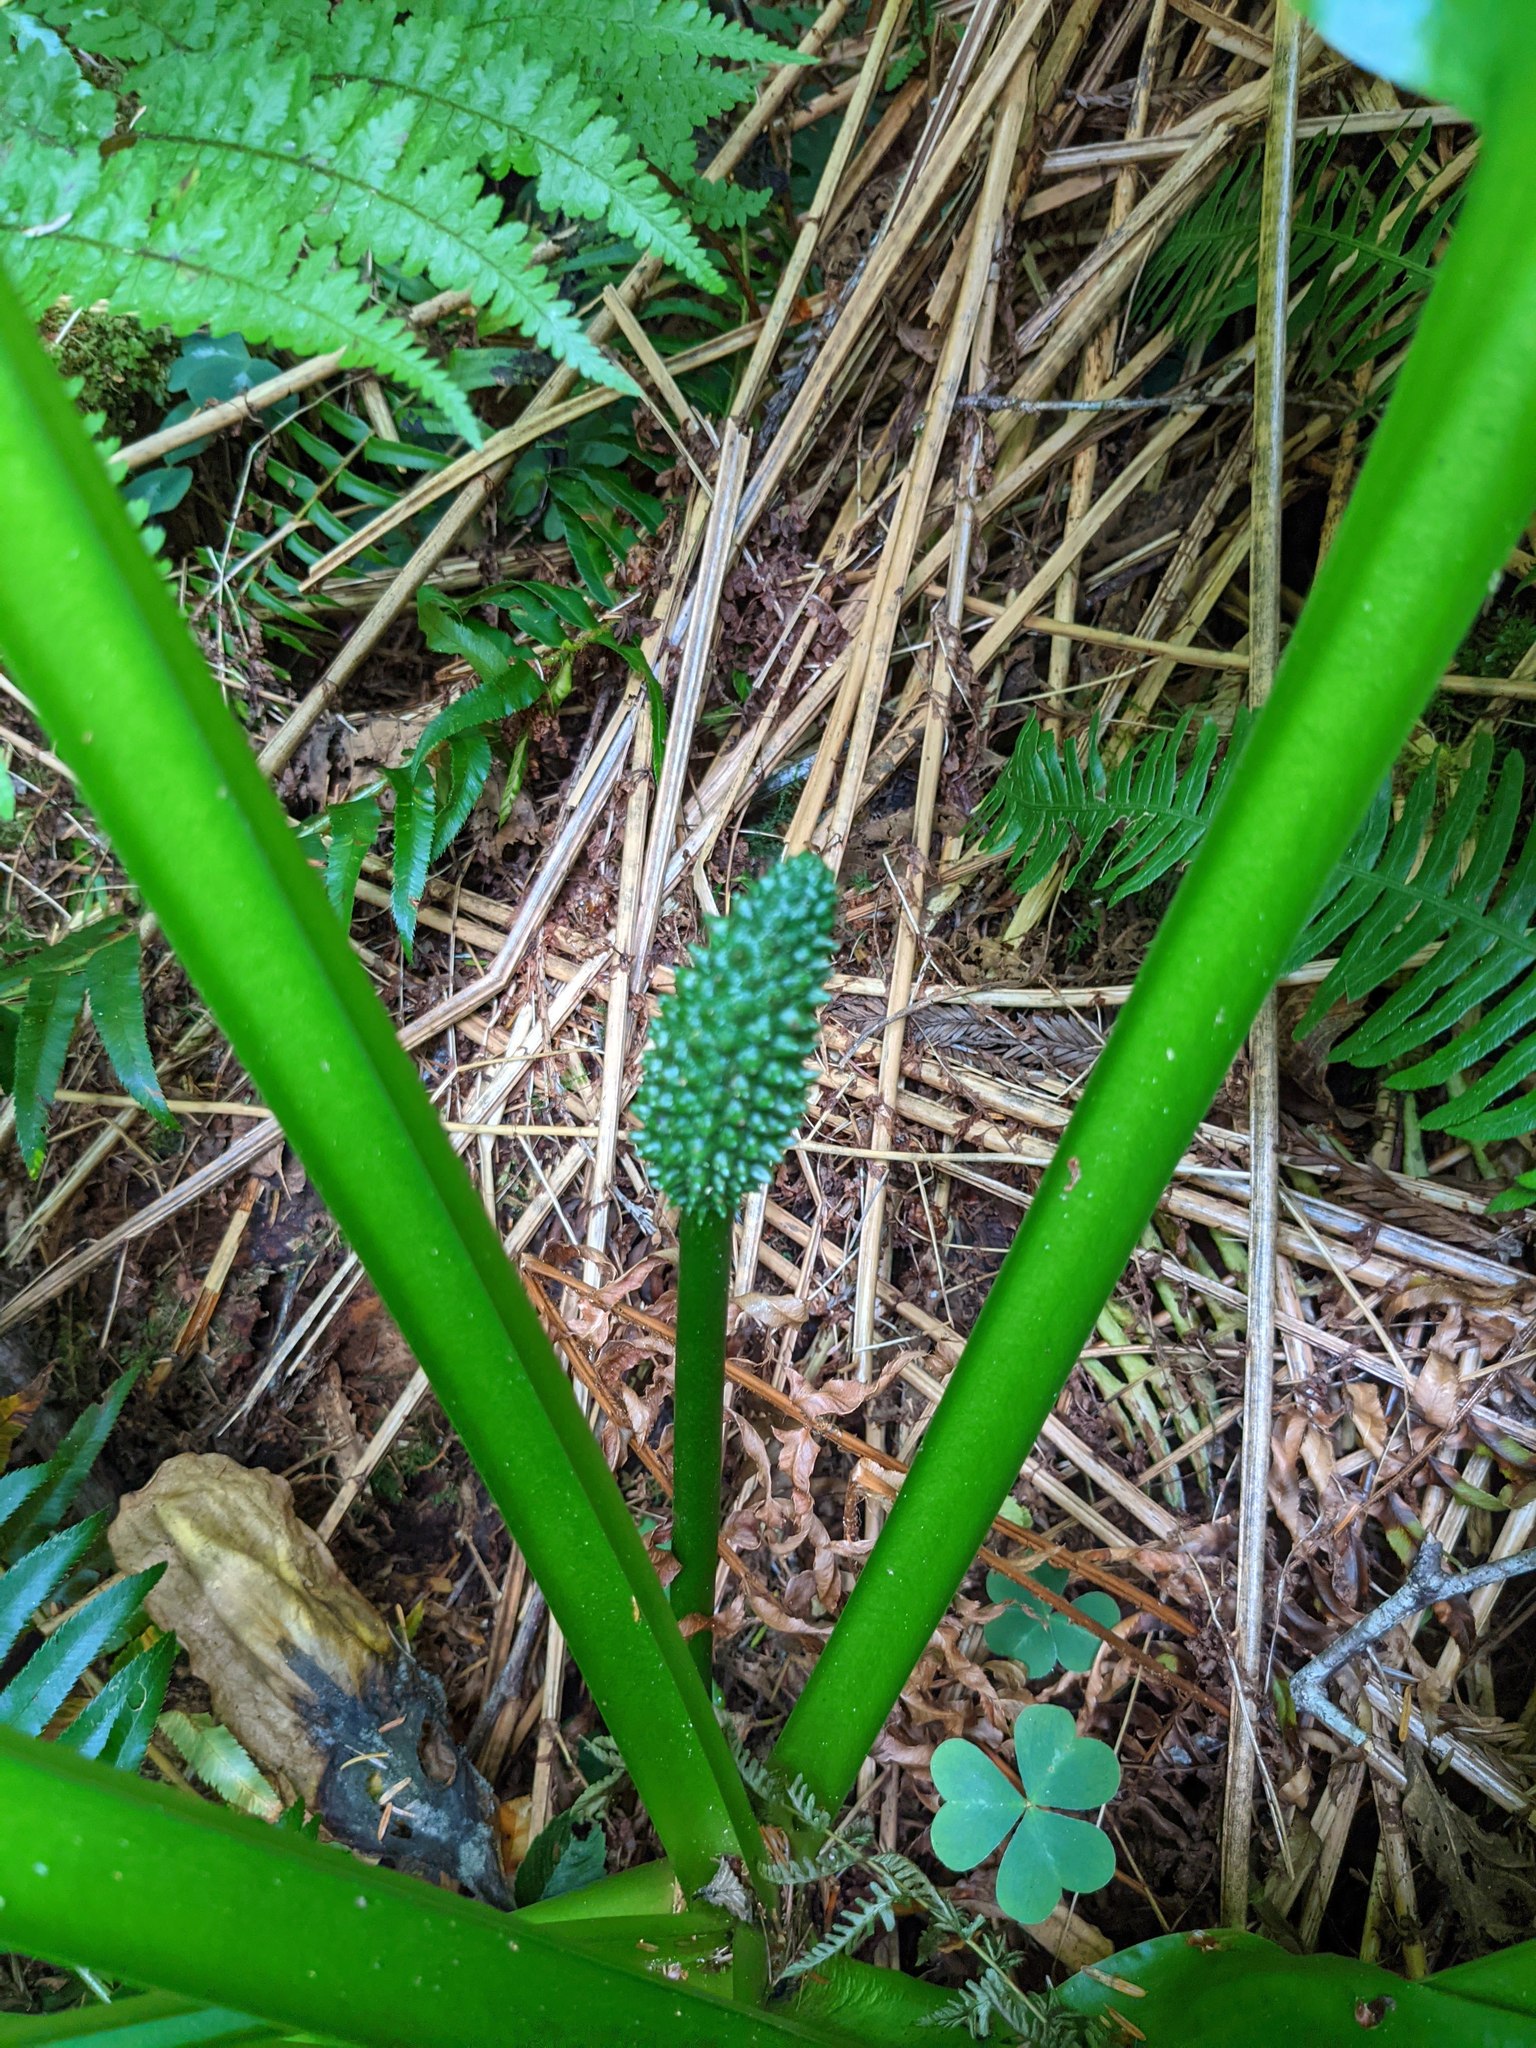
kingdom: Plantae
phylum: Tracheophyta
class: Liliopsida
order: Alismatales
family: Araceae
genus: Lysichiton
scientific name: Lysichiton americanus
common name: American skunk cabbage
